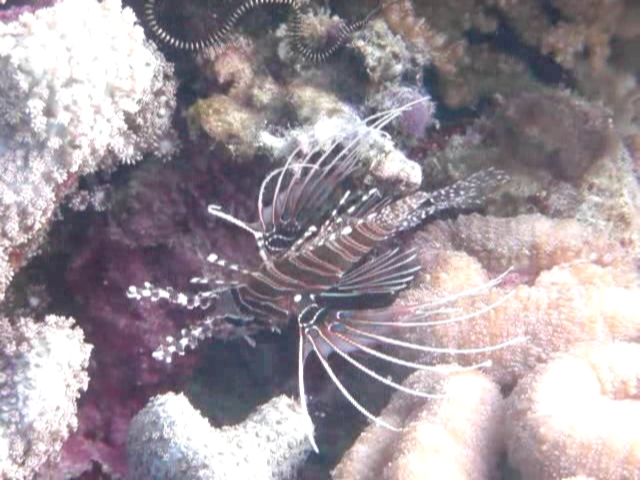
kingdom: Animalia
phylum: Chordata
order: Scorpaeniformes
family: Scorpaenidae
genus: Pterois
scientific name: Pterois antennata
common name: Spotfin lionfish
